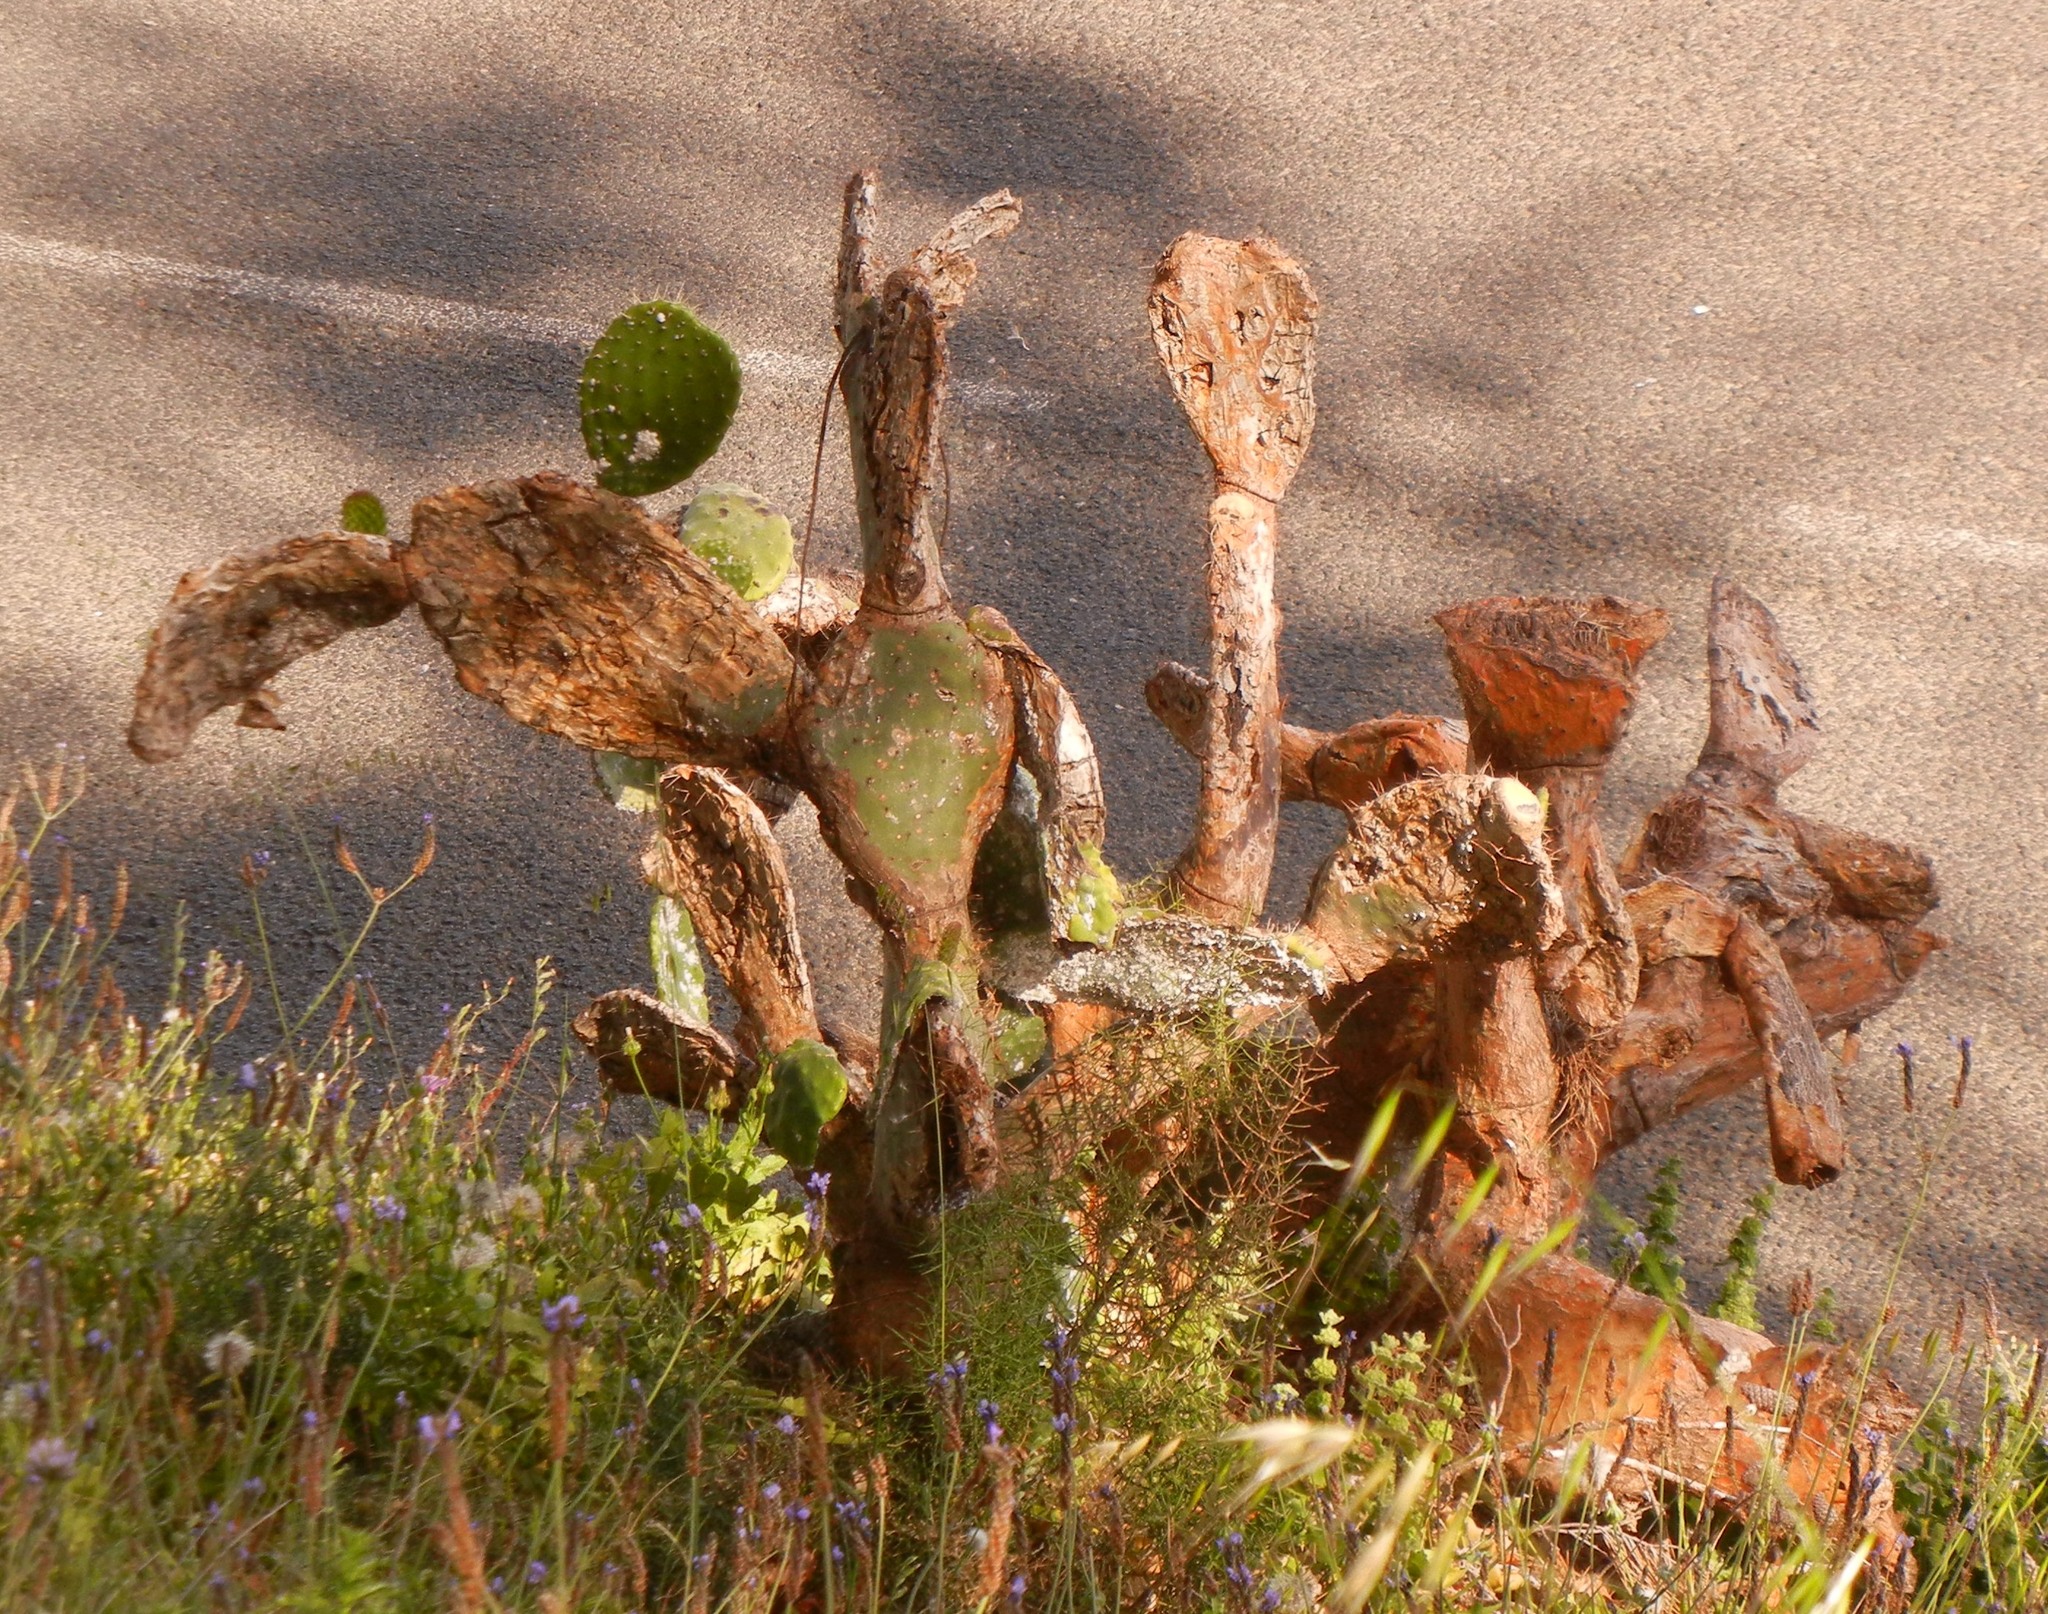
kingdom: Plantae
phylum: Tracheophyta
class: Magnoliopsida
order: Caryophyllales
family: Cactaceae
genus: Opuntia
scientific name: Opuntia ficus-indica
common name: Barbary fig
